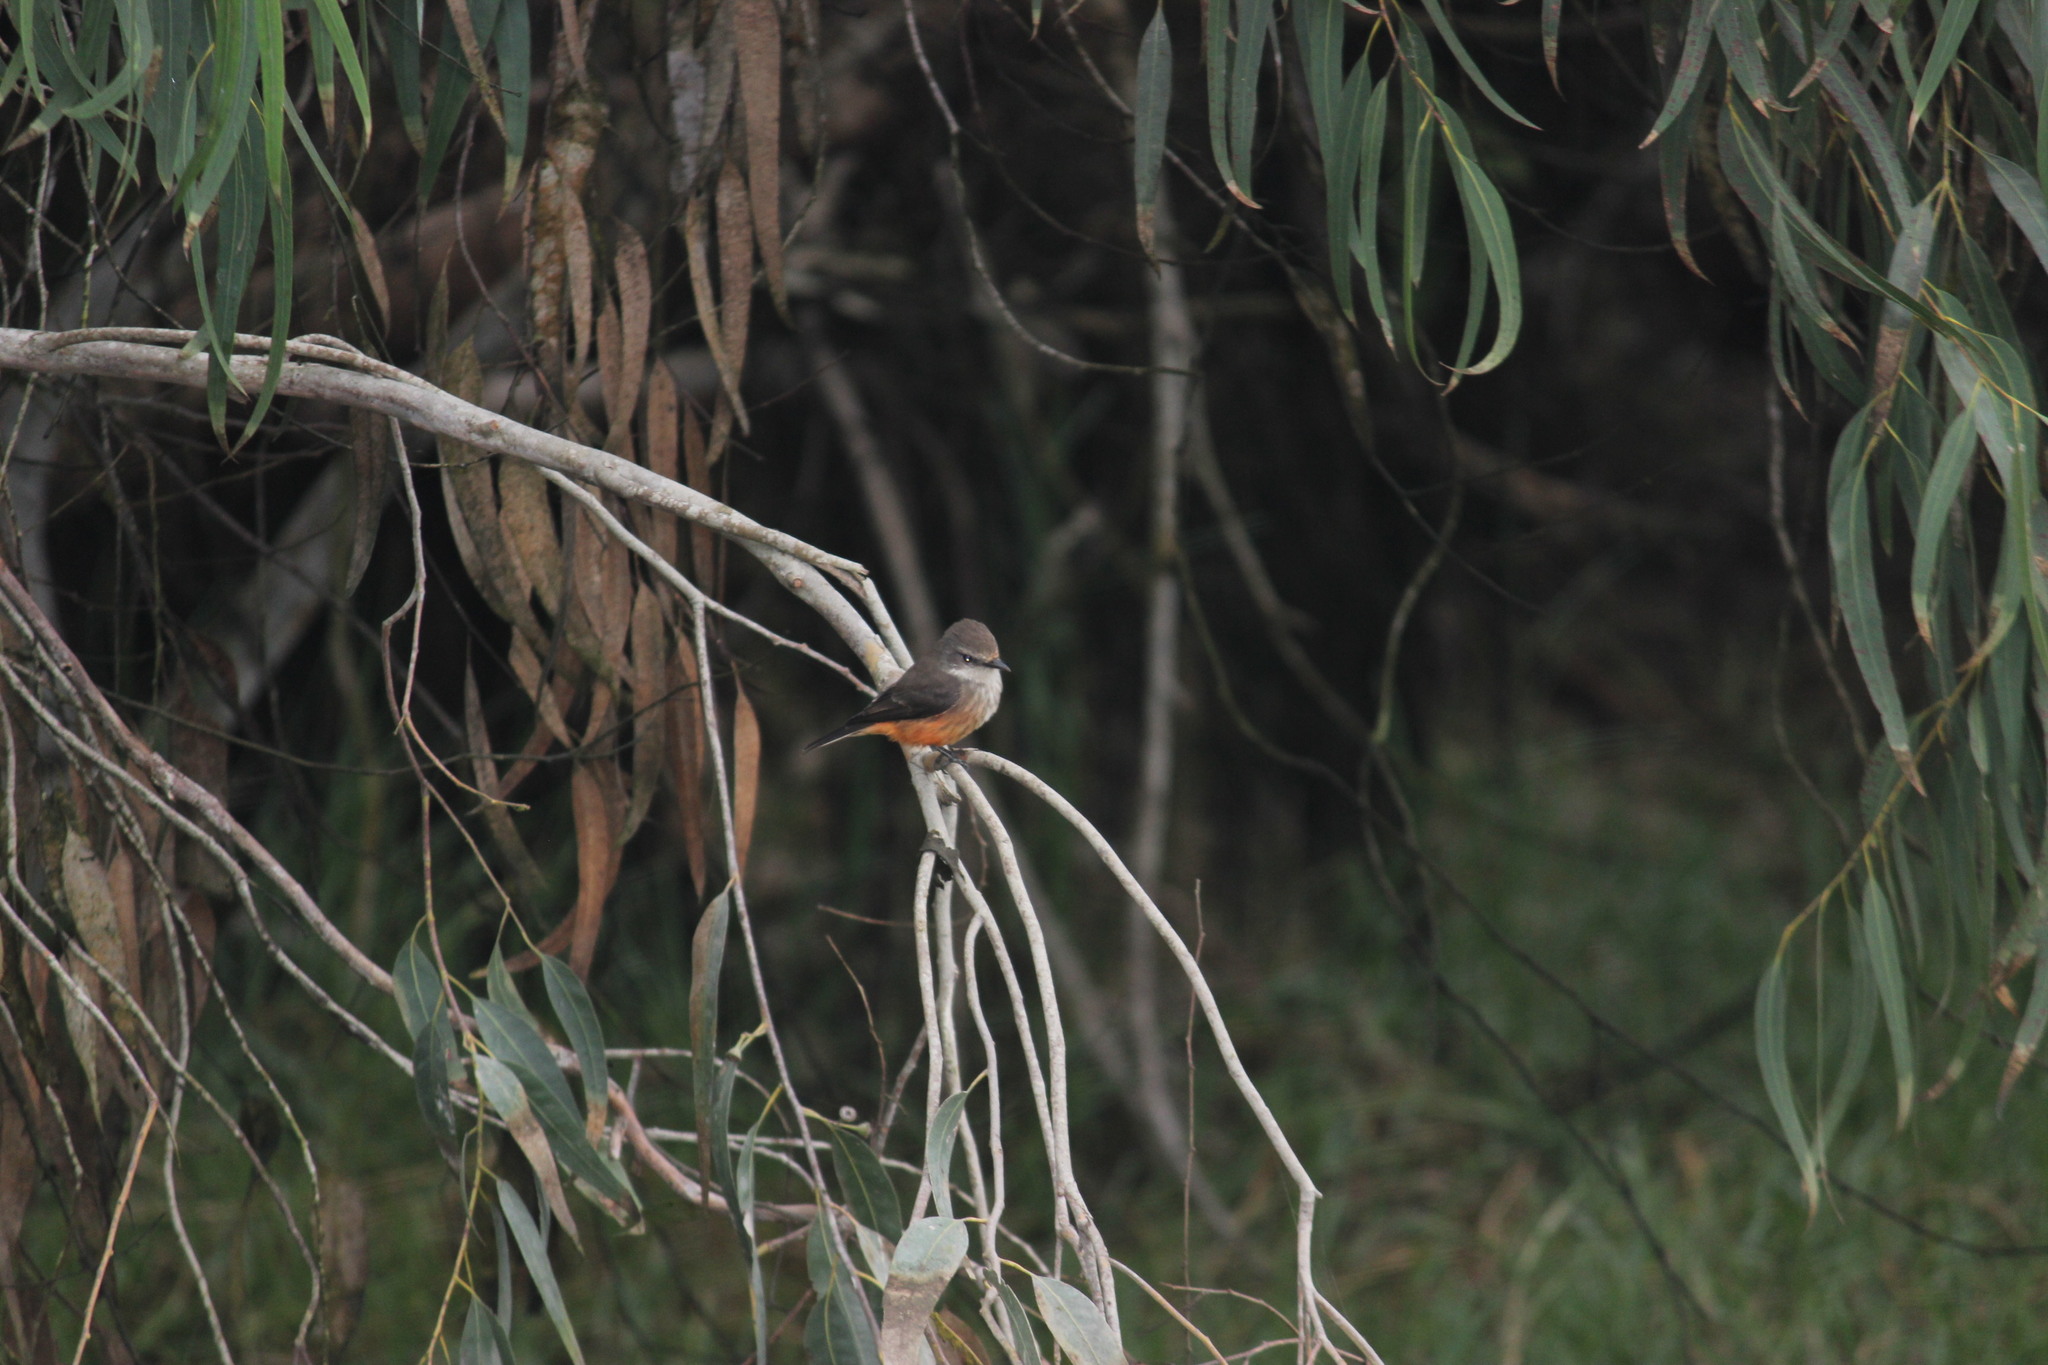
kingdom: Animalia
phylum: Chordata
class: Aves
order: Passeriformes
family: Tyrannidae
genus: Pyrocephalus
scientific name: Pyrocephalus rubinus
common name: Vermilion flycatcher
